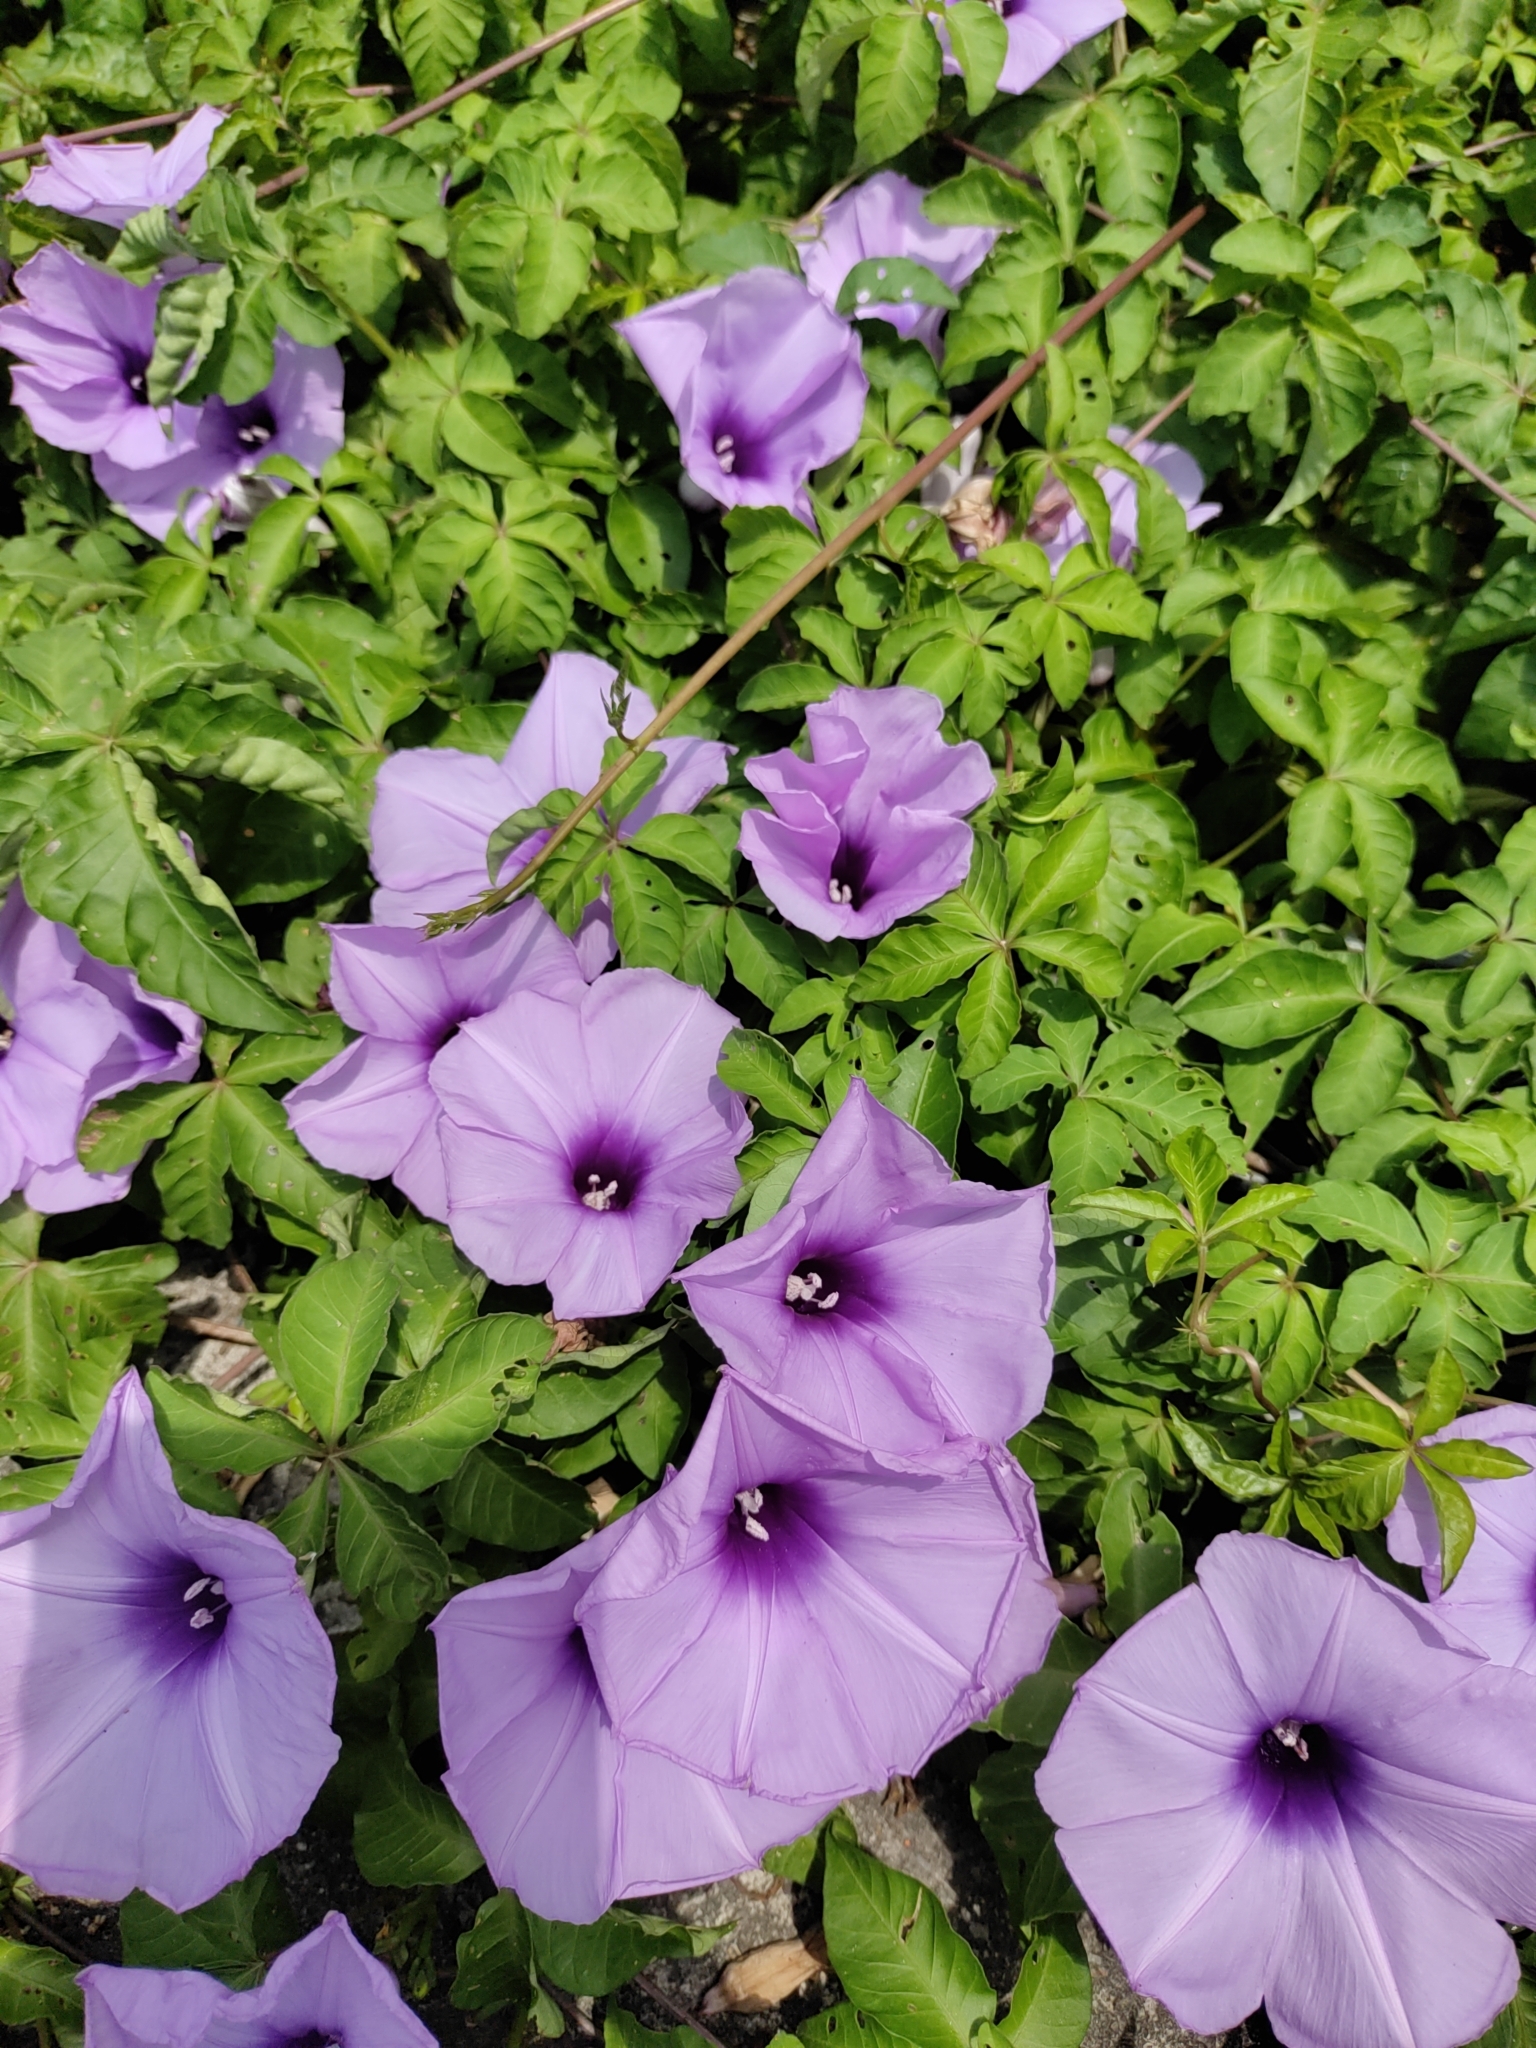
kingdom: Plantae
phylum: Tracheophyta
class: Magnoliopsida
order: Solanales
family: Convolvulaceae
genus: Ipomoea
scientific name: Ipomoea cairica
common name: Mile a minute vine
